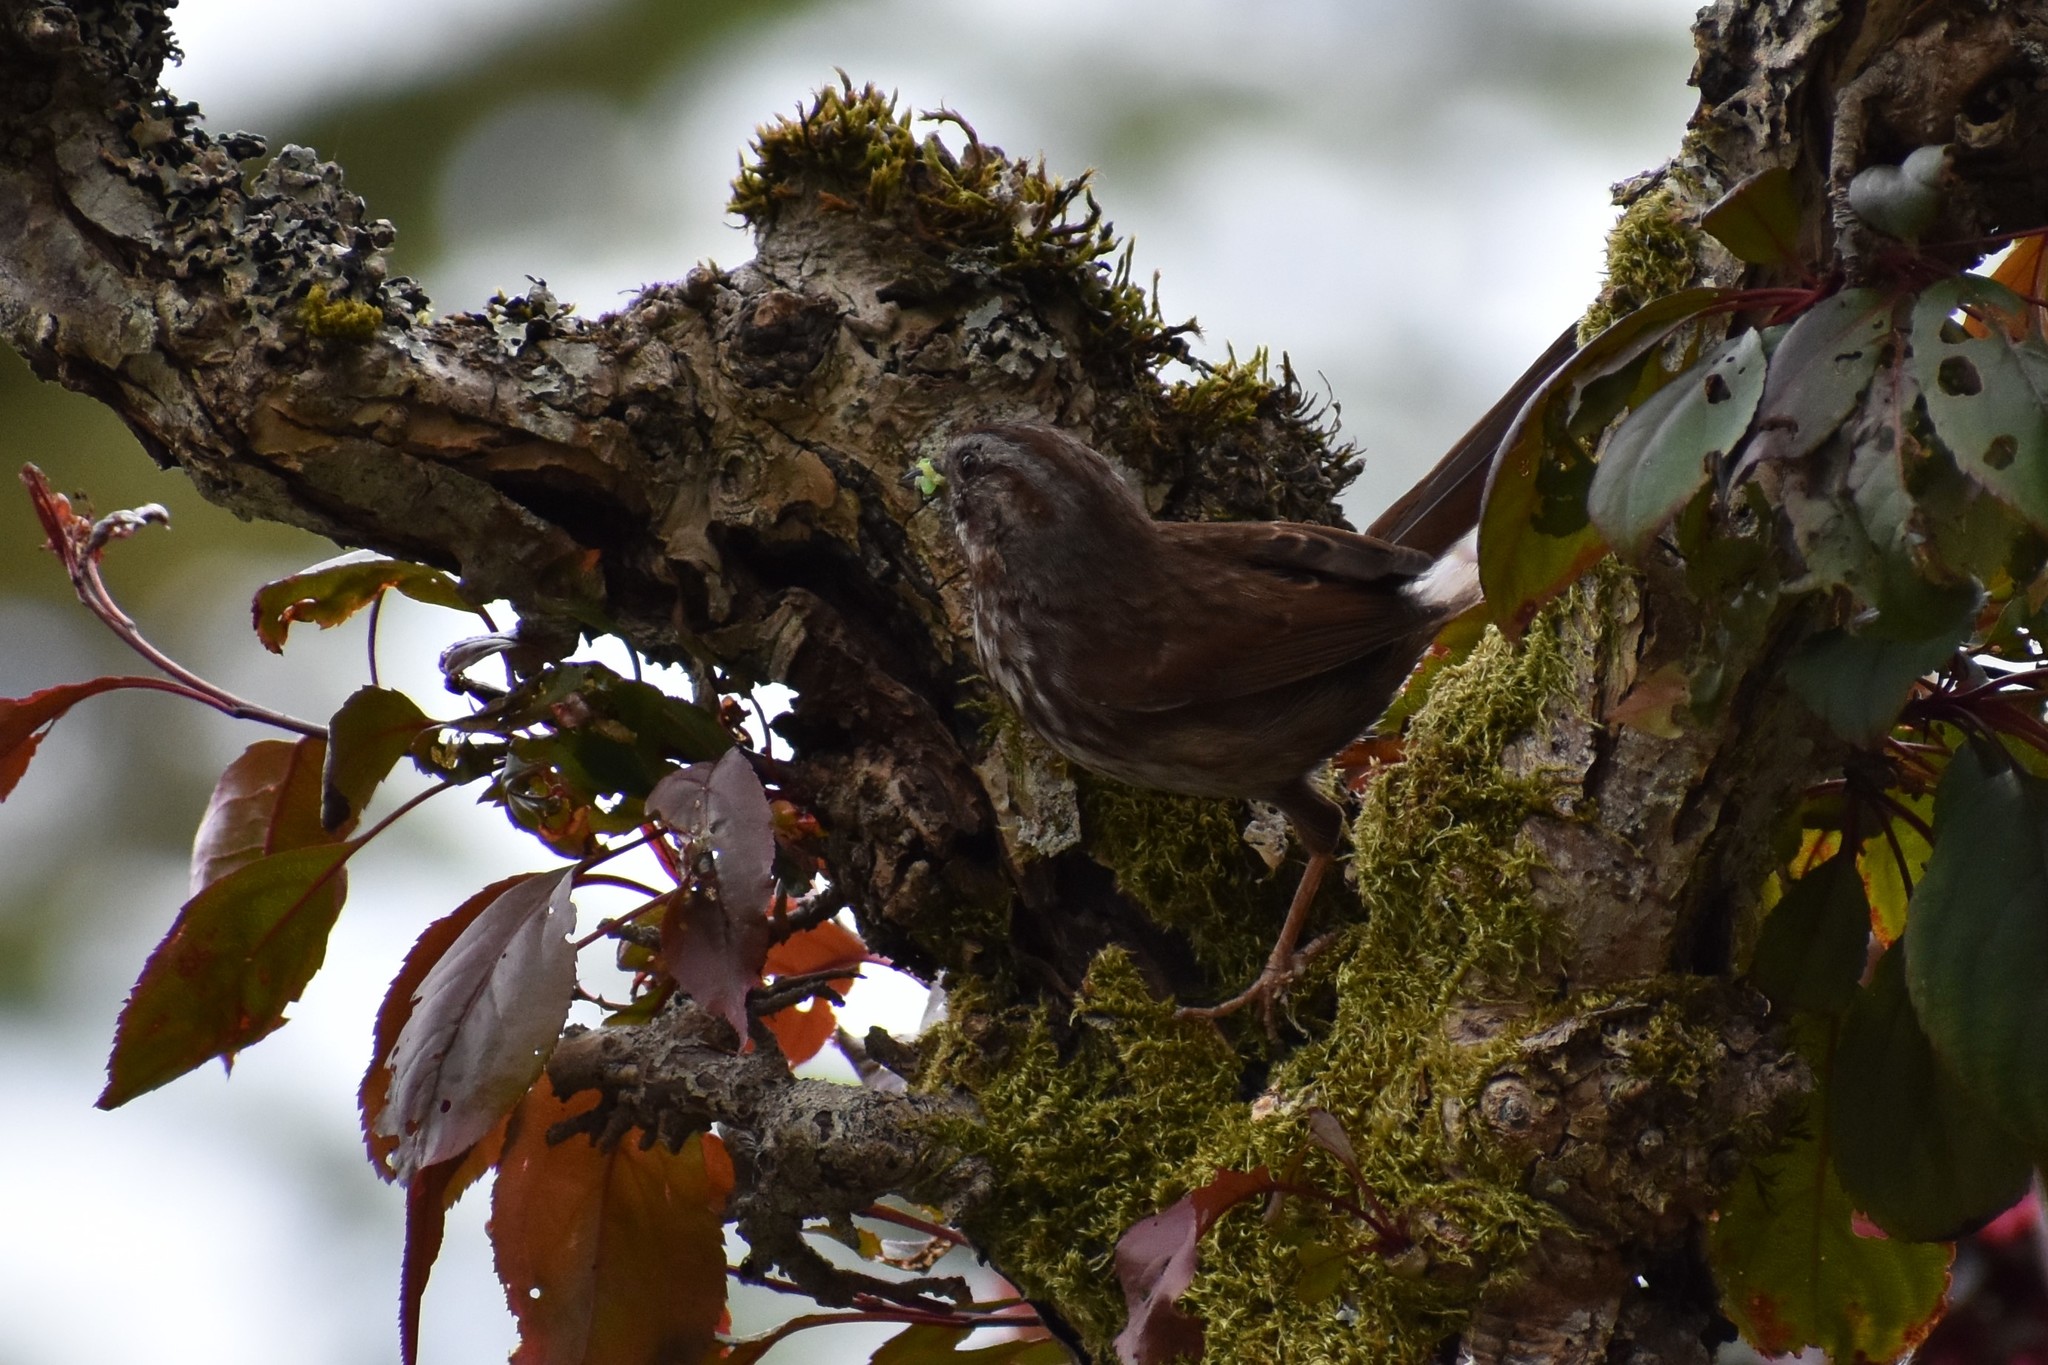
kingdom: Animalia
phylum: Chordata
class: Aves
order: Passeriformes
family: Passerellidae
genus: Melospiza
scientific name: Melospiza melodia
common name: Song sparrow
